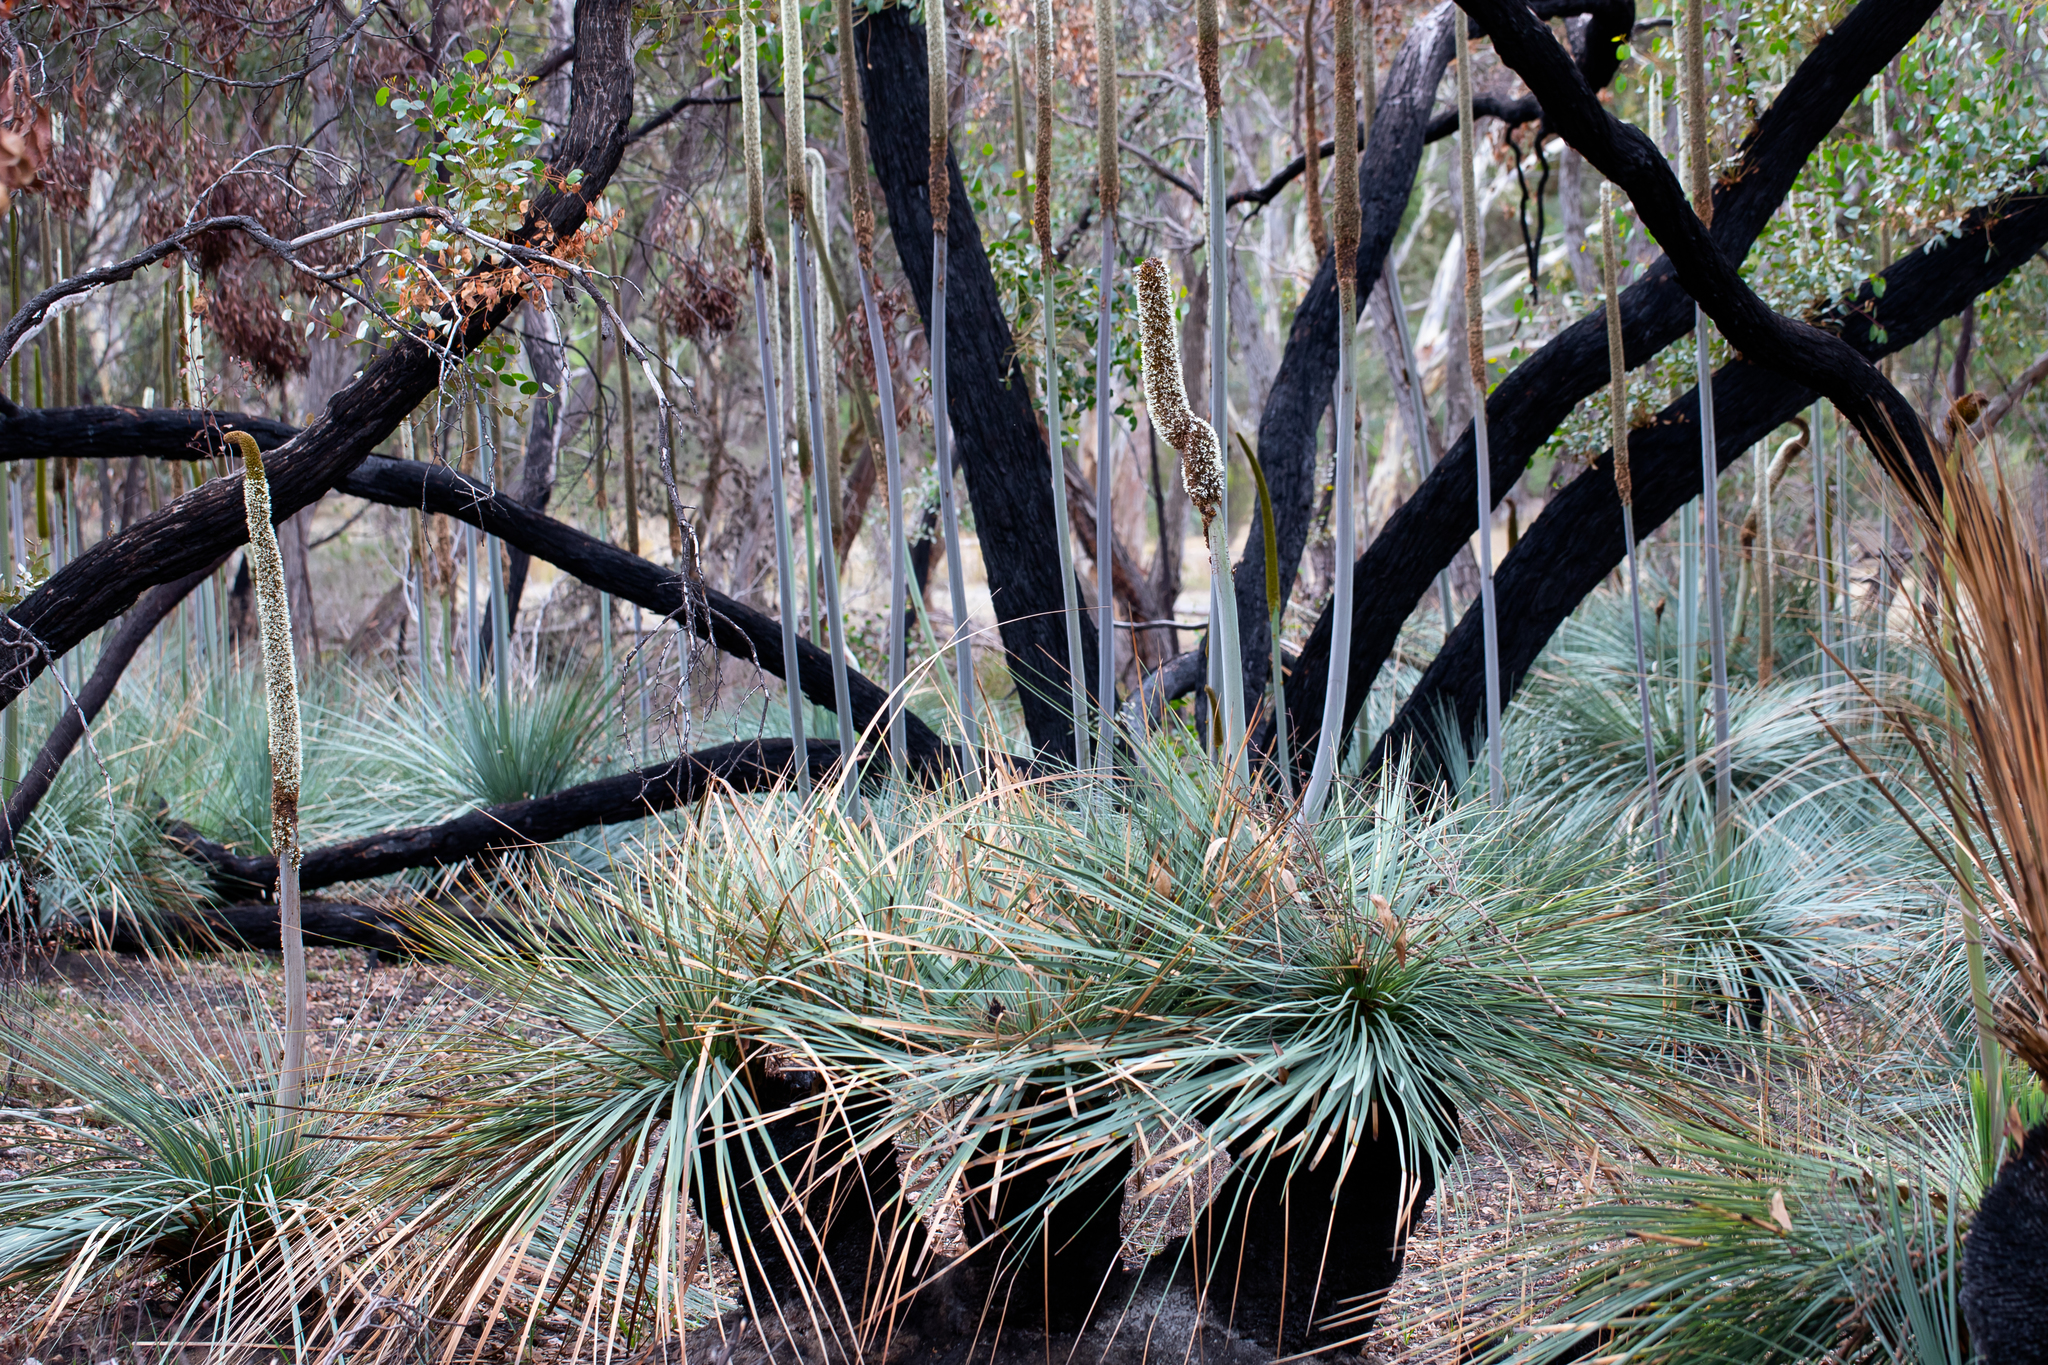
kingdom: Plantae
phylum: Tracheophyta
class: Liliopsida
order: Asparagales
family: Asphodelaceae
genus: Xanthorrhoea
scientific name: Xanthorrhoea semiplana
